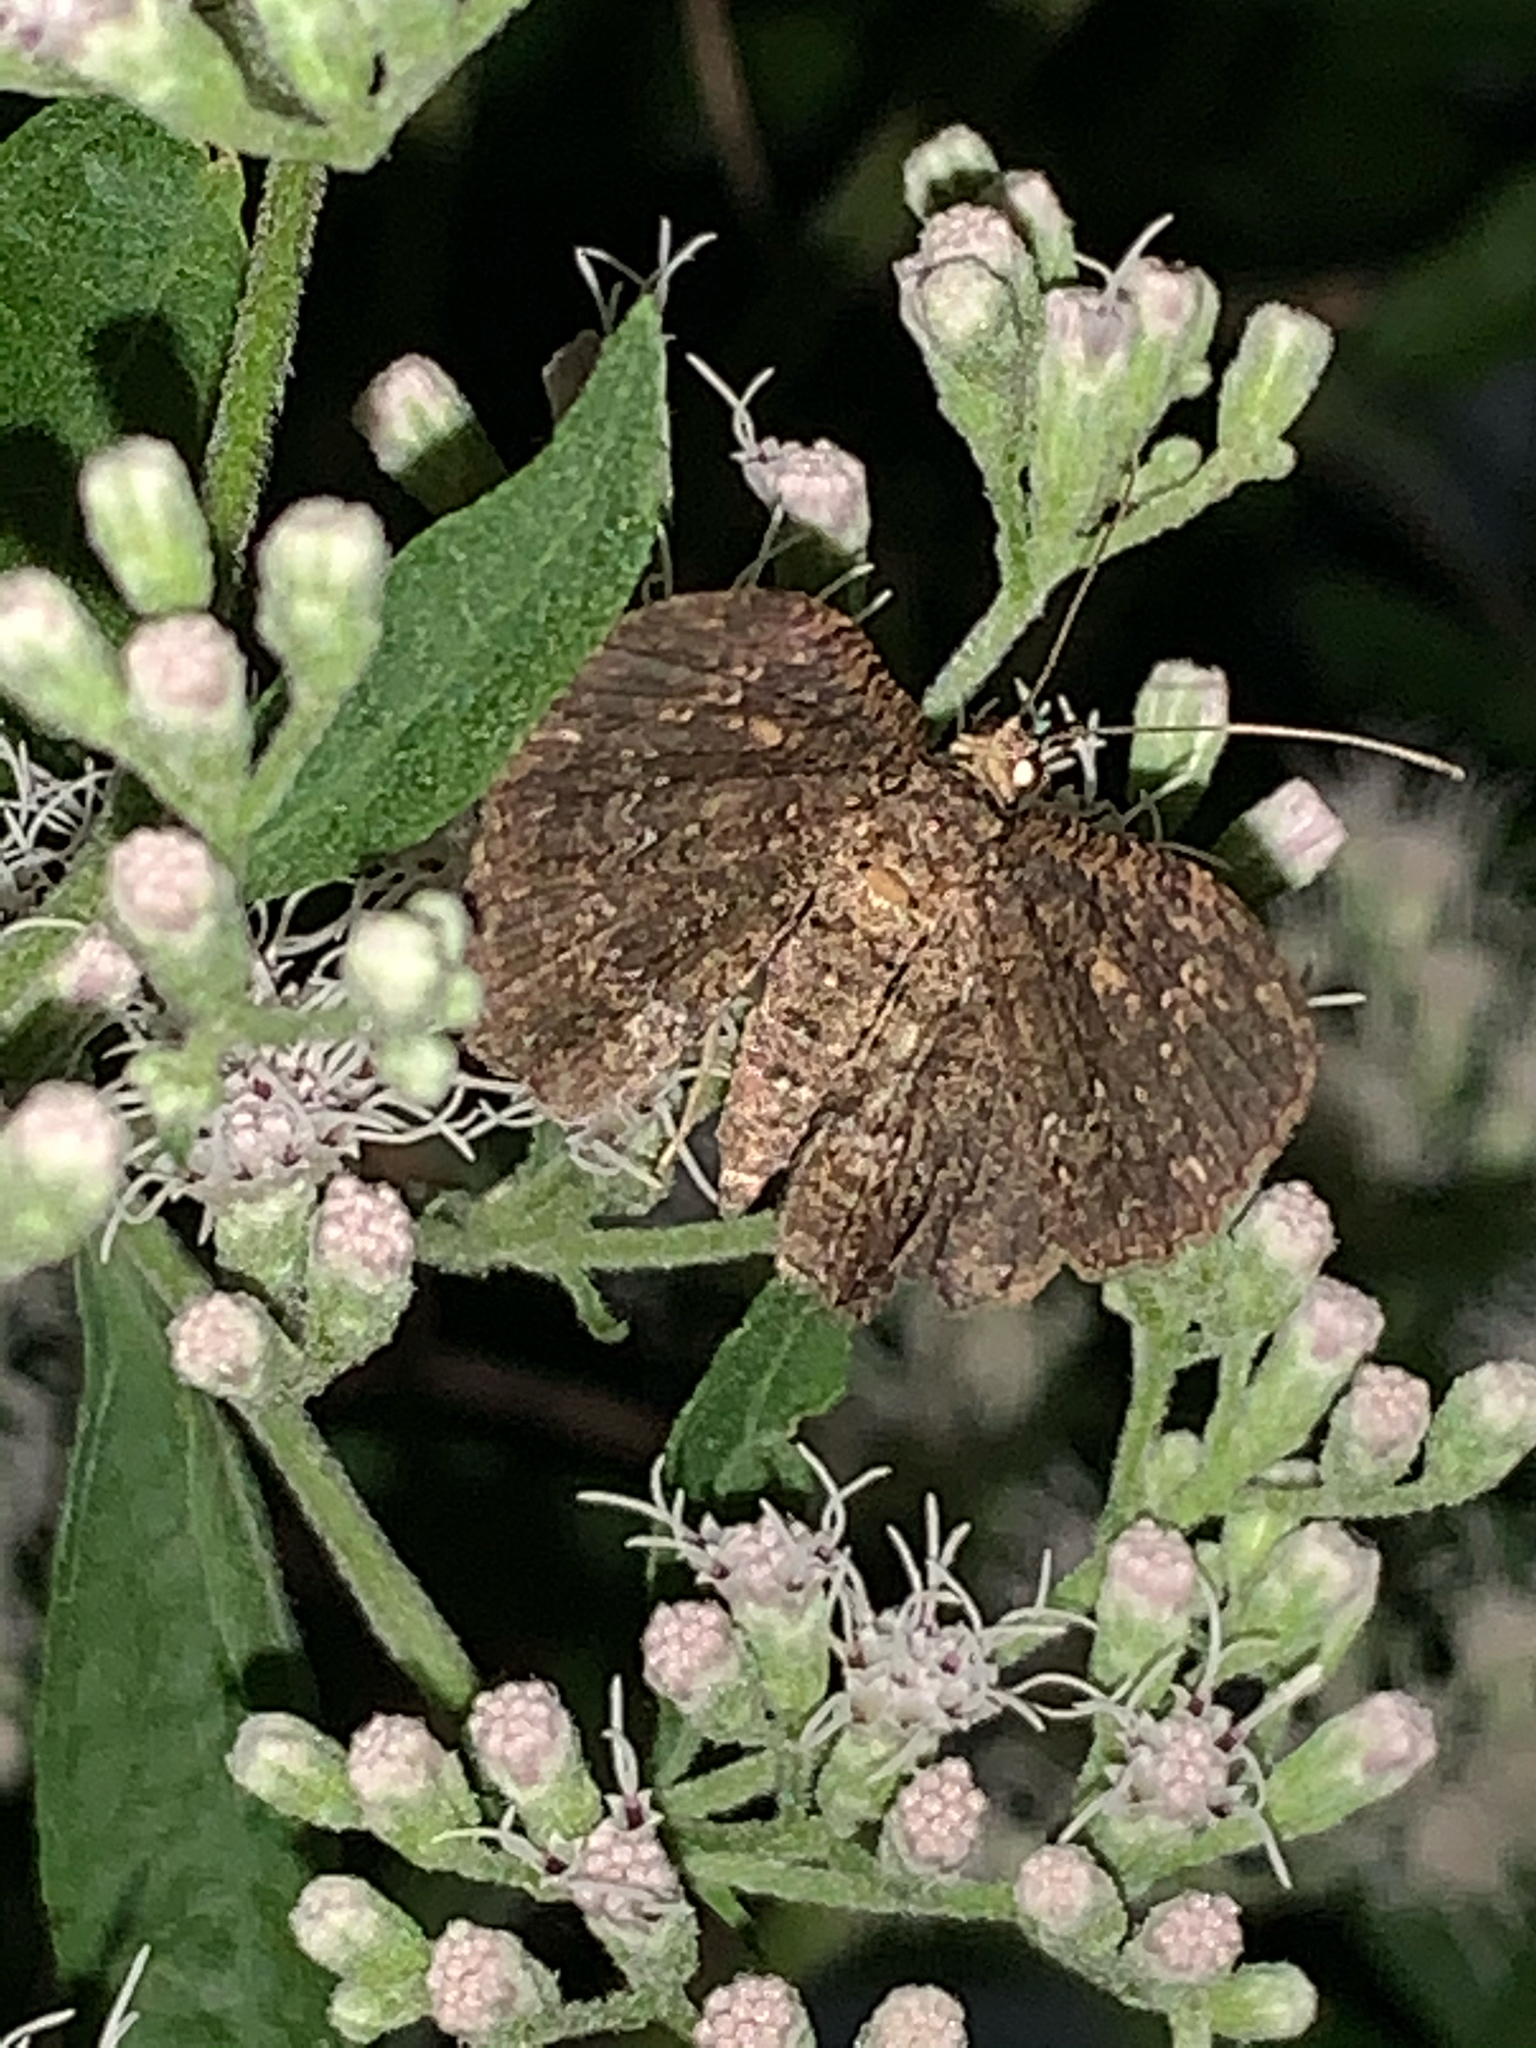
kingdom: Animalia
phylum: Arthropoda
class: Insecta
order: Lepidoptera
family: Geometridae
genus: Disclisioprocta
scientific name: Disclisioprocta stellata
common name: Somber carpet
